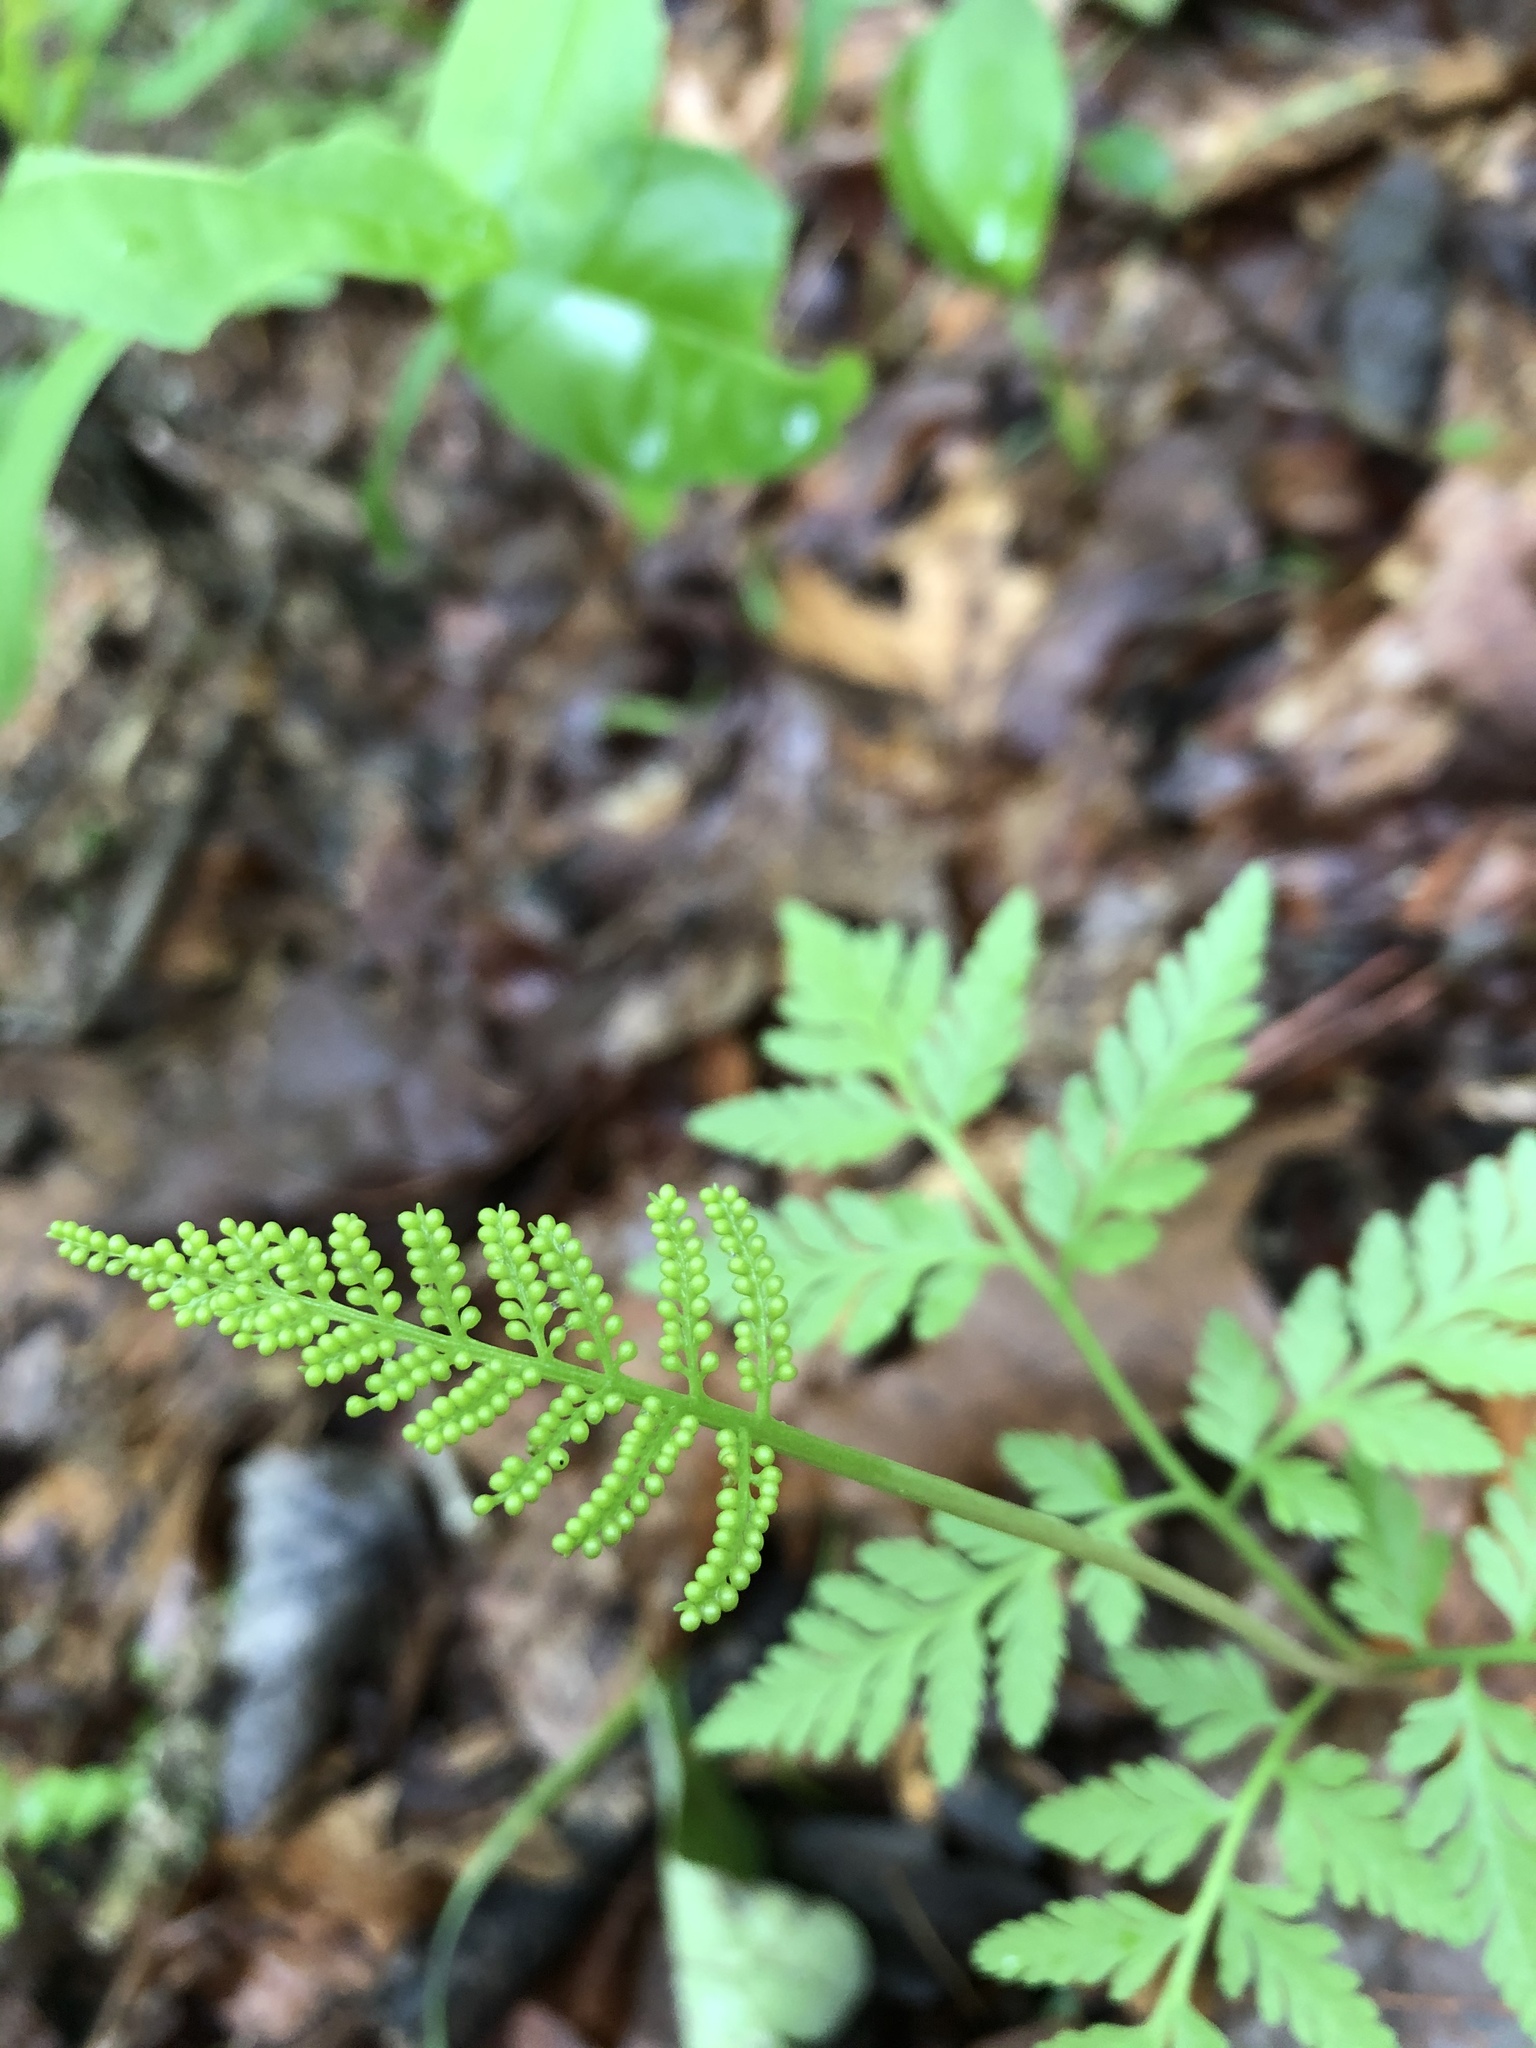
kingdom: Plantae
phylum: Tracheophyta
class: Polypodiopsida
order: Ophioglossales
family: Ophioglossaceae
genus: Botrypus
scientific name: Botrypus virginianus
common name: Common grapefern
